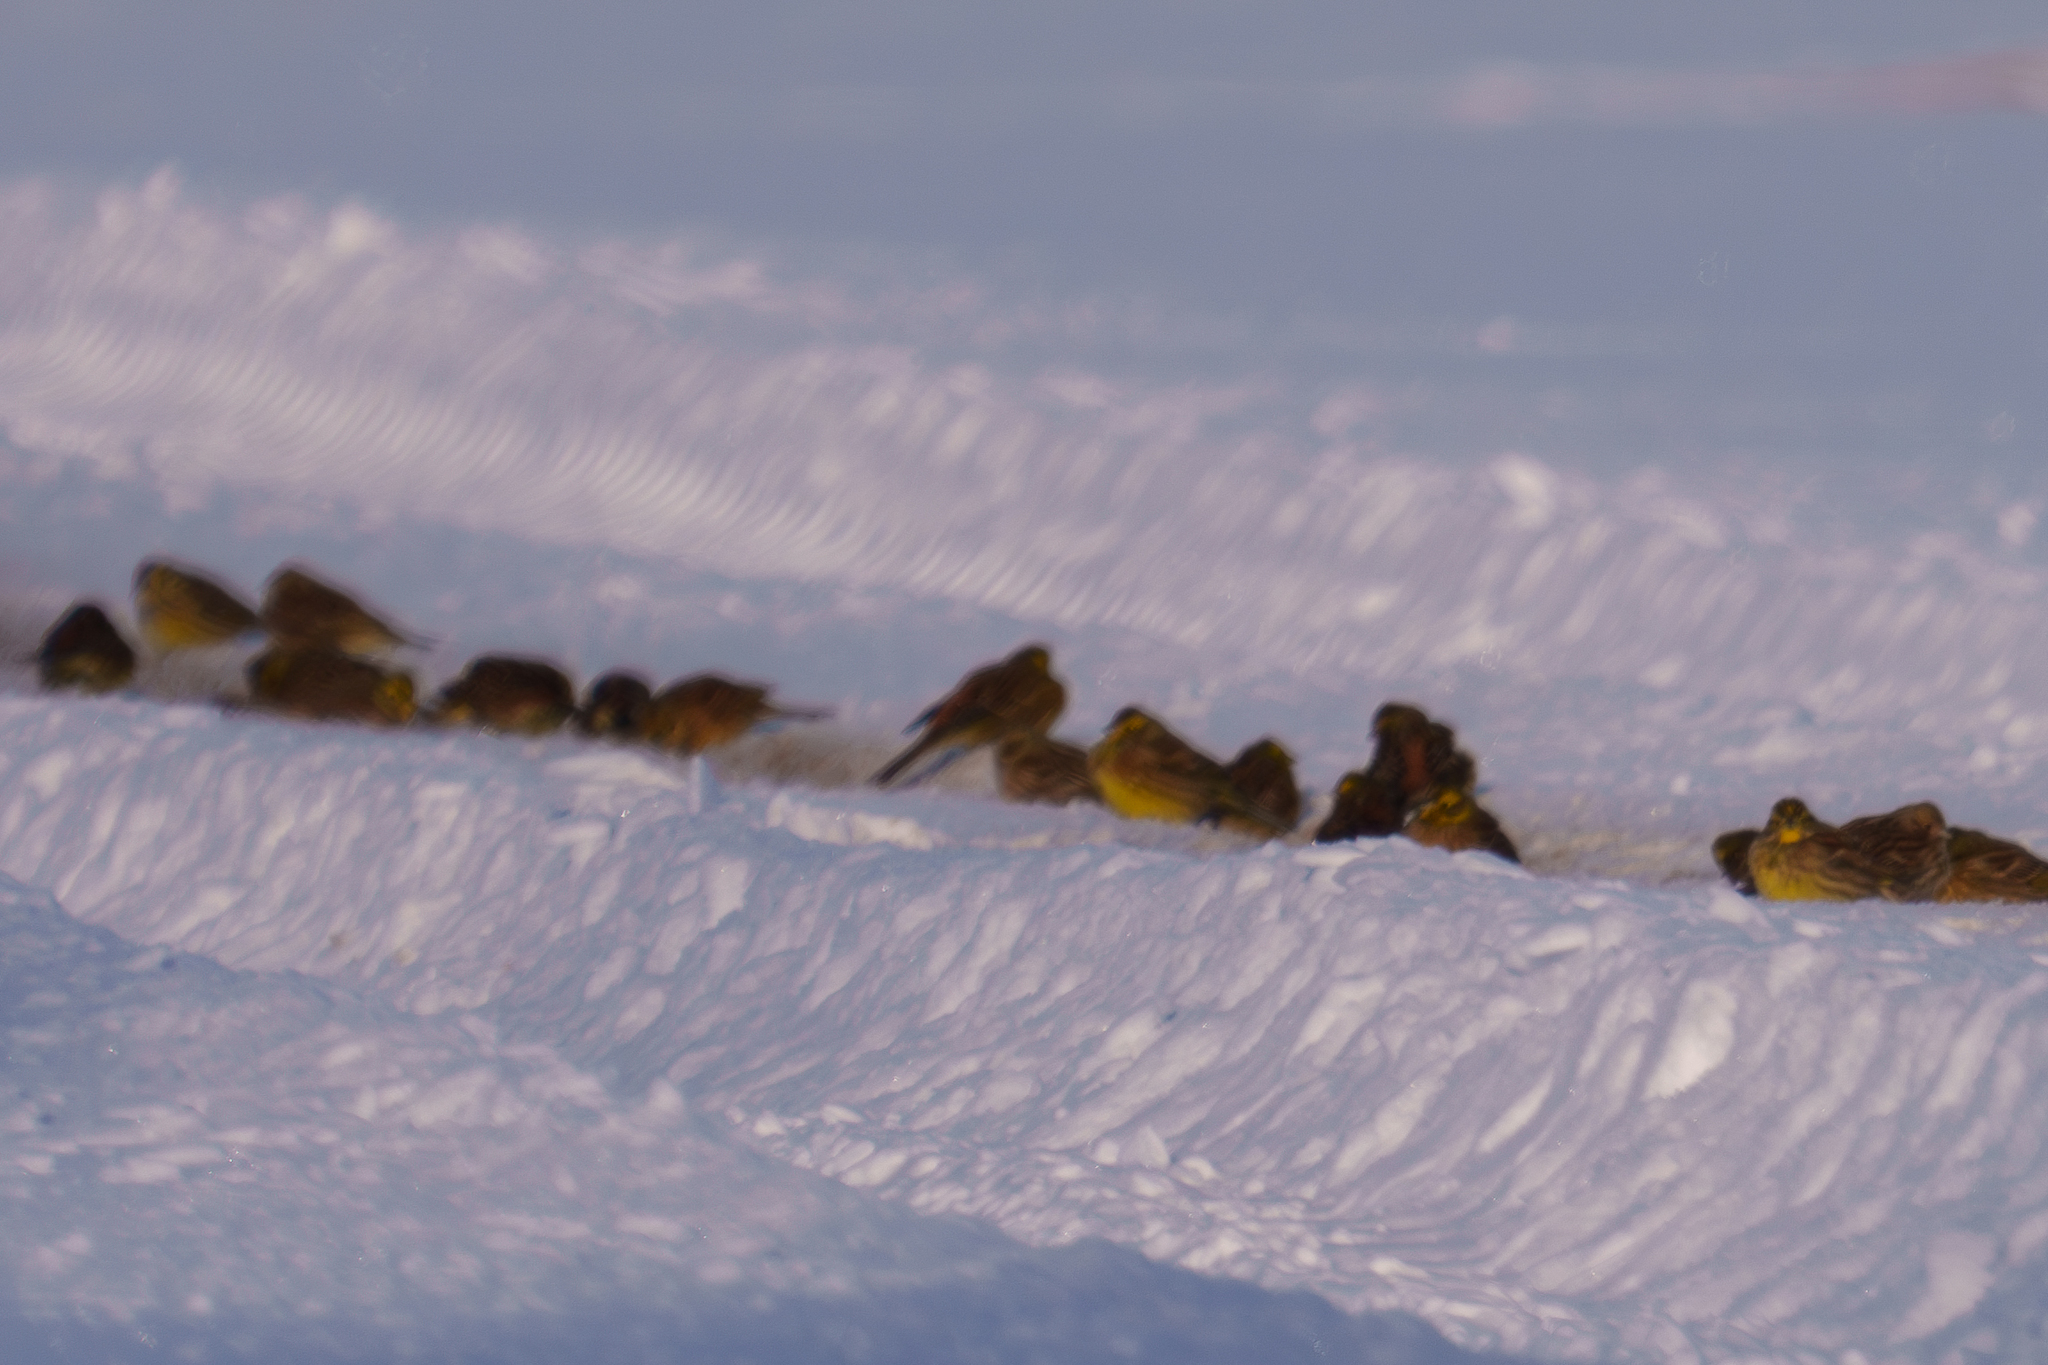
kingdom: Animalia
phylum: Chordata
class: Aves
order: Passeriformes
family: Emberizidae
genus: Emberiza
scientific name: Emberiza citrinella
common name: Yellowhammer
